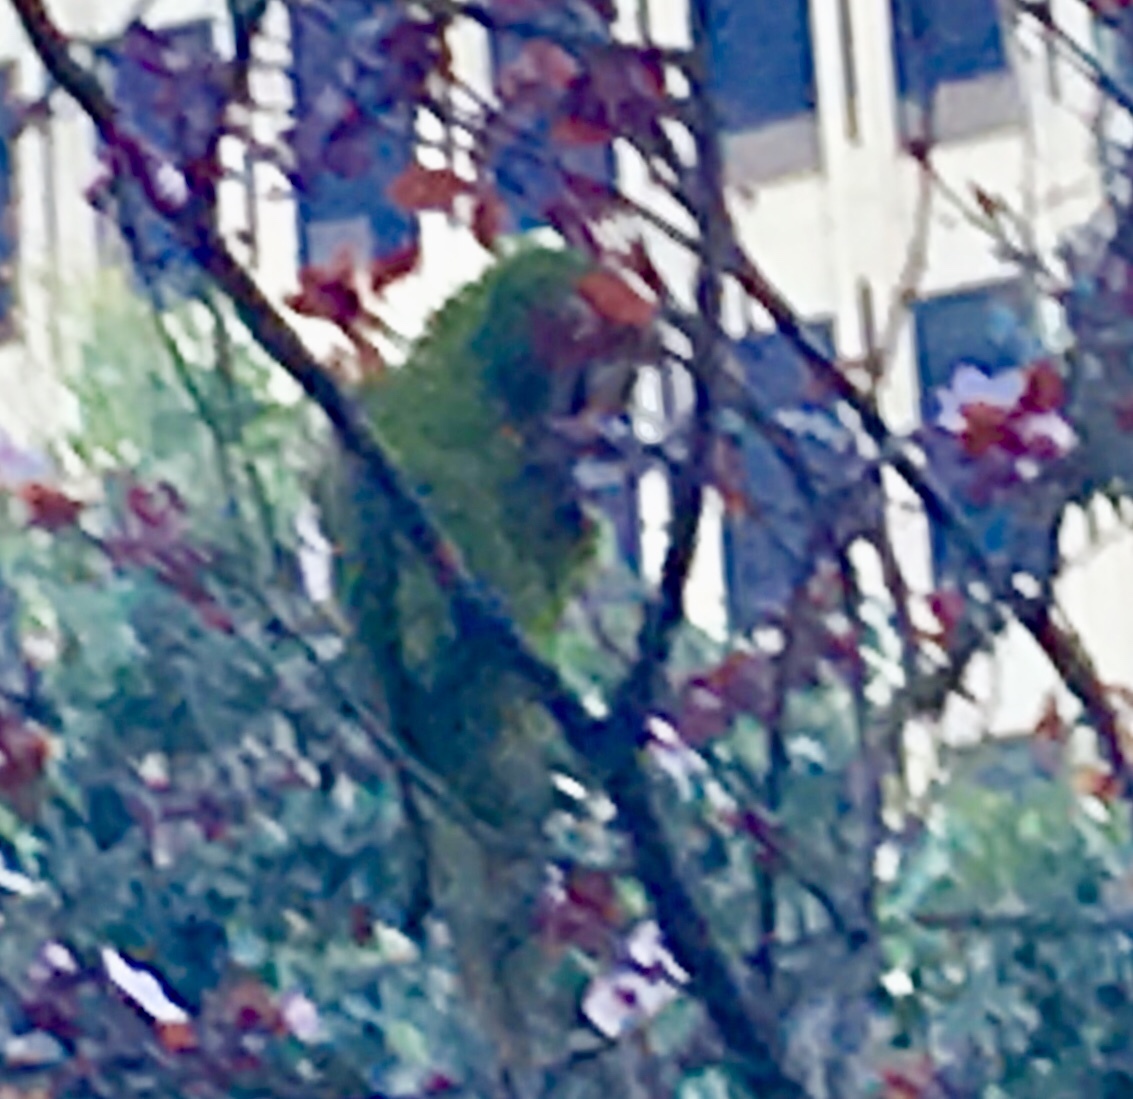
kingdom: Animalia
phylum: Chordata
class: Aves
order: Psittaciformes
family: Psittacidae
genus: Psittacara
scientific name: Psittacara
